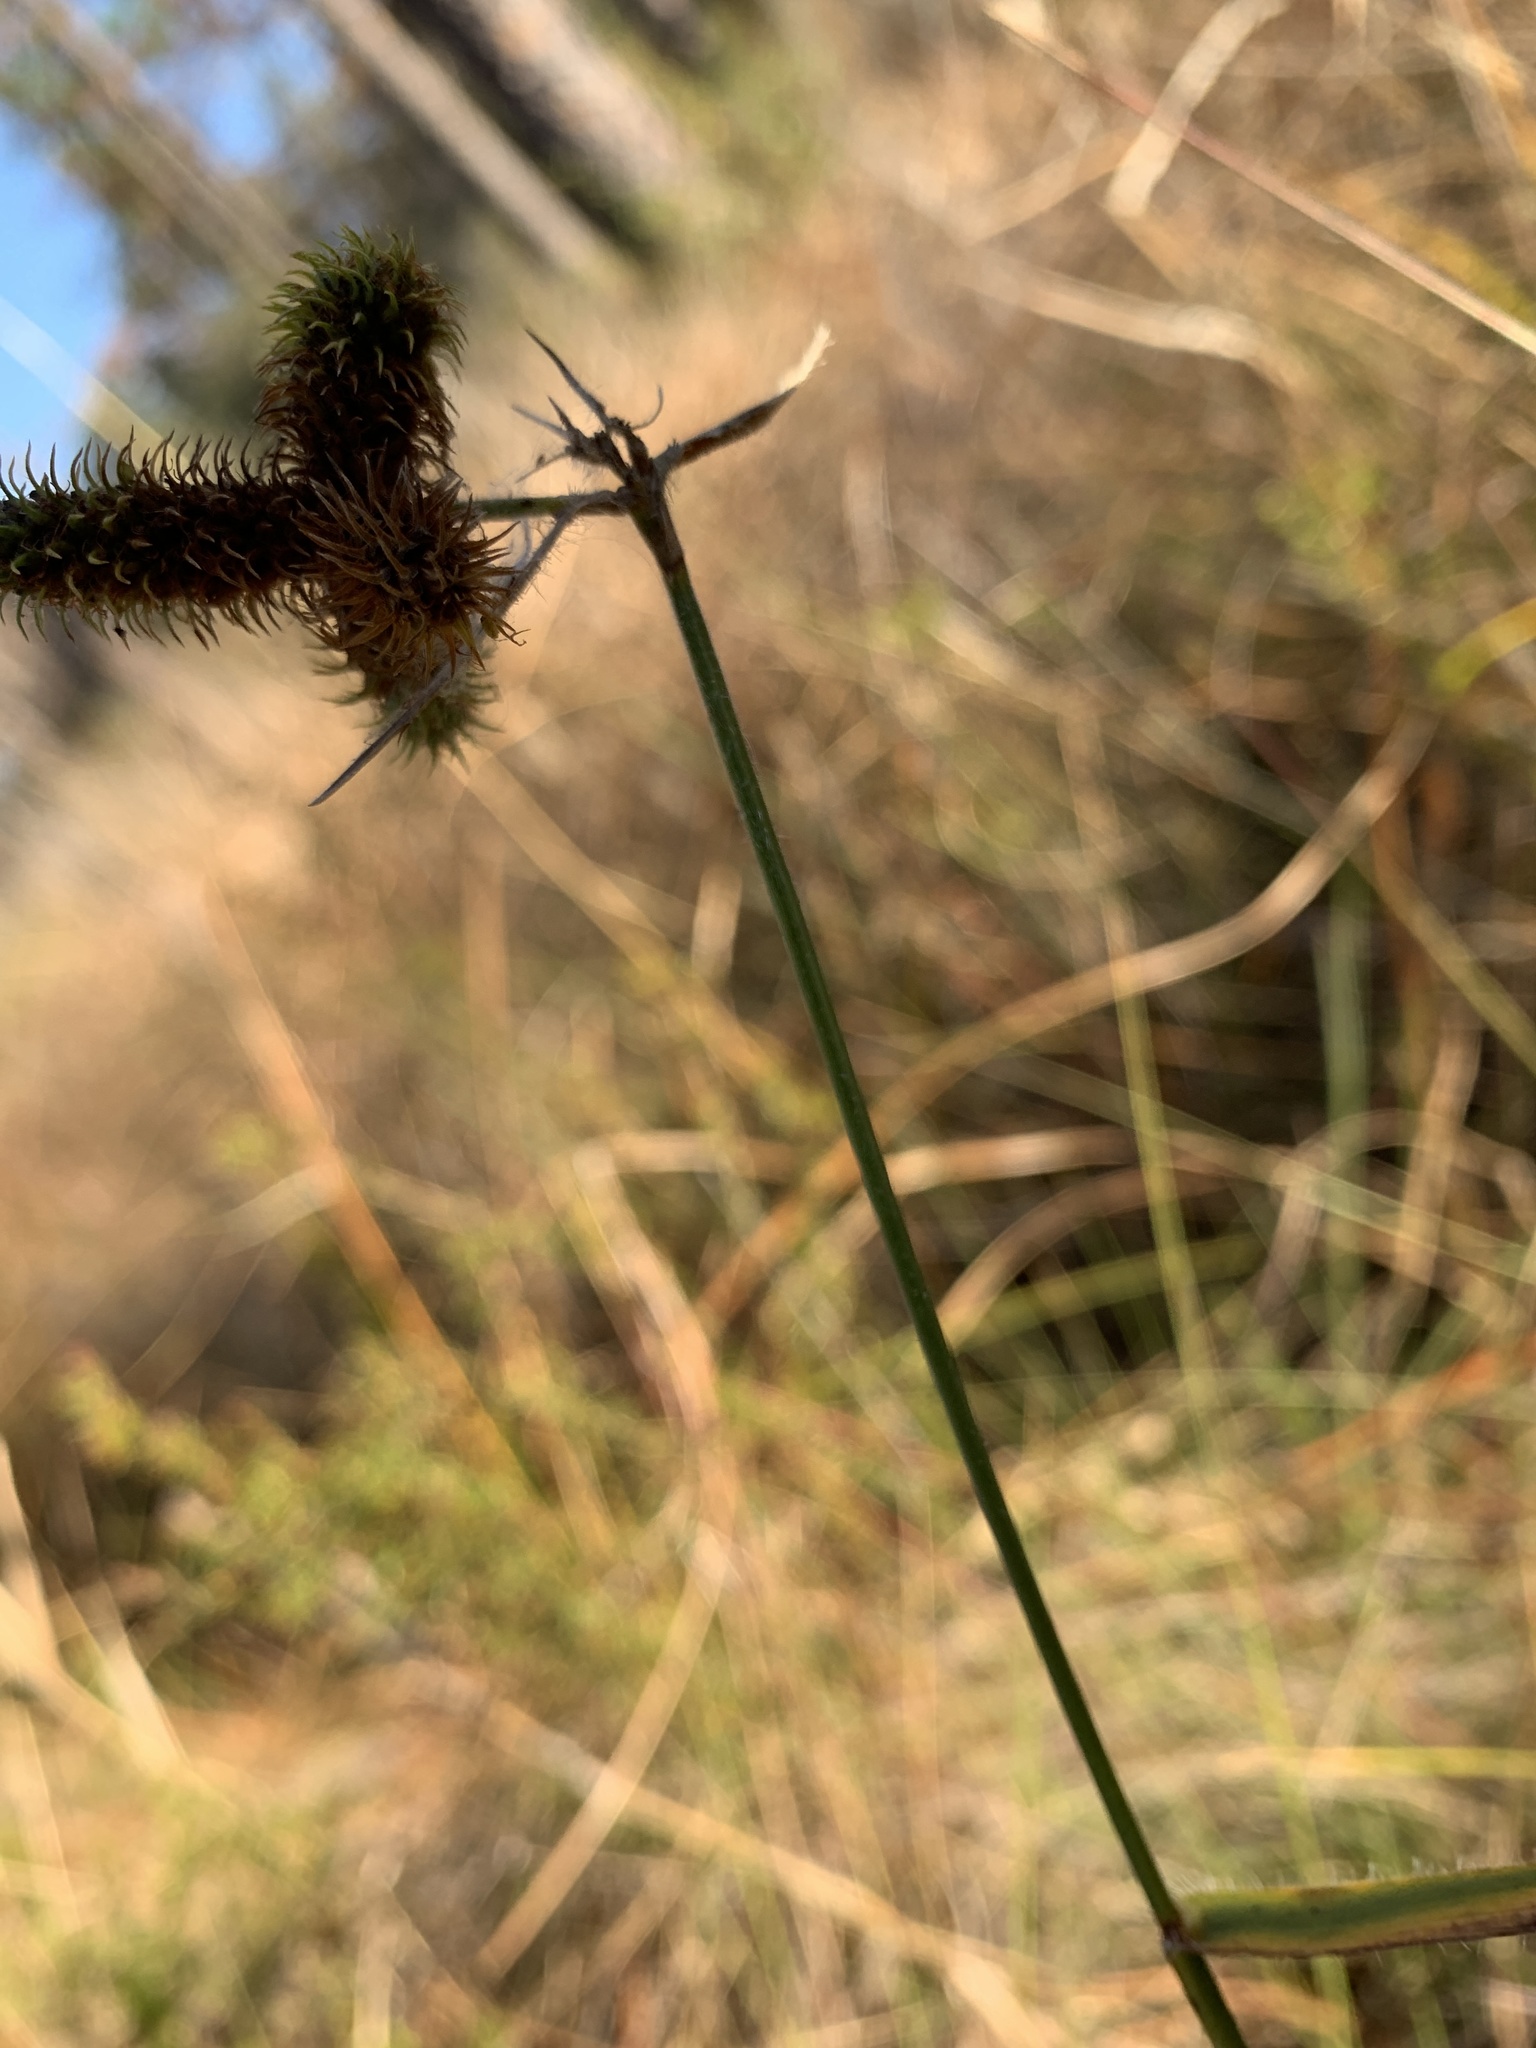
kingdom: Plantae
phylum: Tracheophyta
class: Liliopsida
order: Poales
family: Cyperaceae
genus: Fuirena
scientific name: Fuirena breviseta
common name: Saltmarsh umbrella sedge
